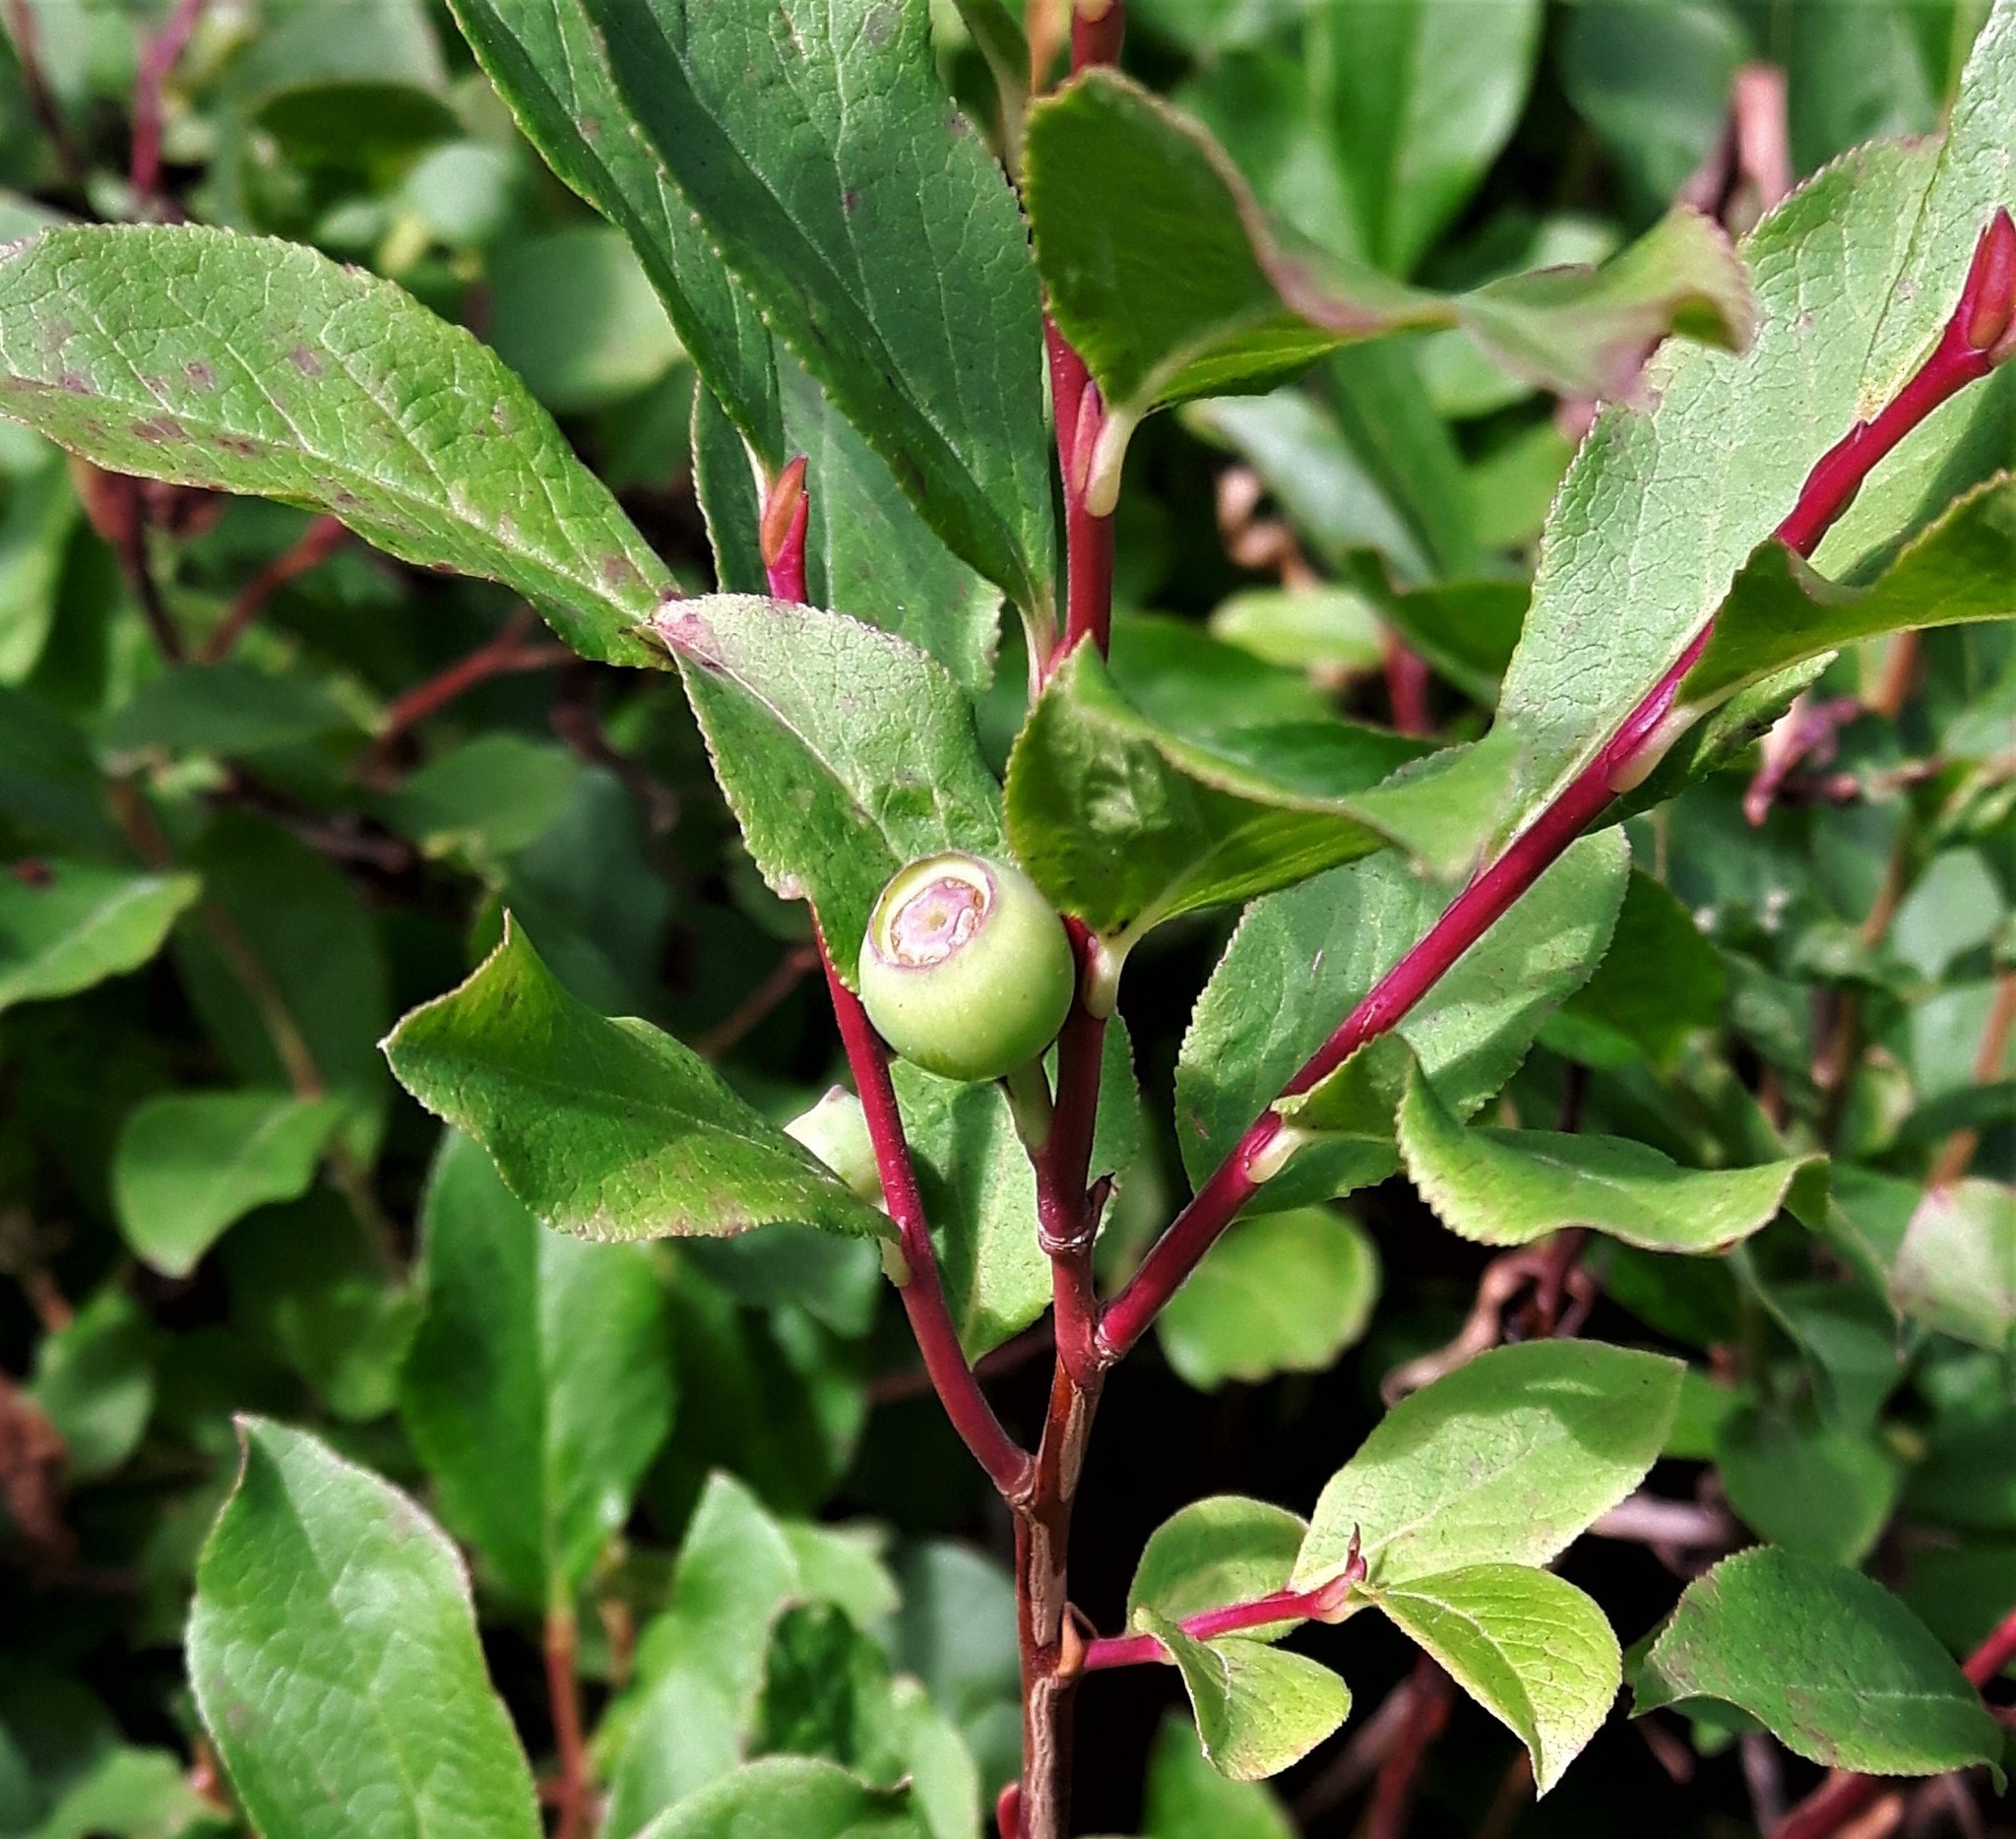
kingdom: Plantae
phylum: Tracheophyta
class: Magnoliopsida
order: Ericales
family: Ericaceae
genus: Vaccinium
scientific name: Vaccinium membranaceum
